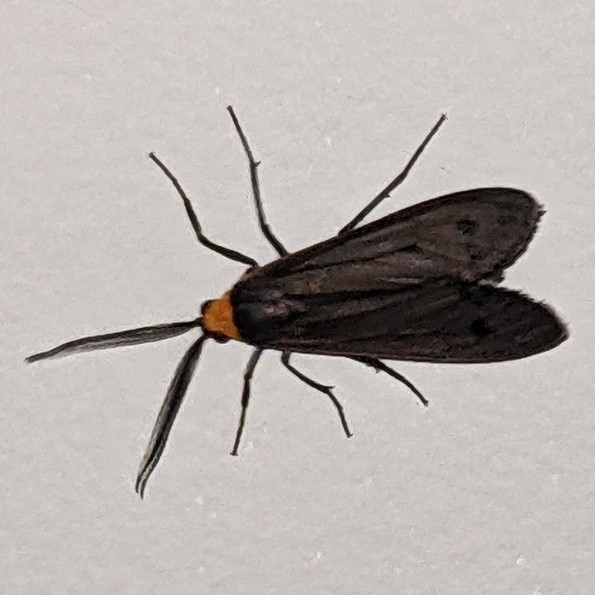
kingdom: Animalia
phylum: Arthropoda
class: Insecta
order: Lepidoptera
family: Erebidae
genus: Cisseps
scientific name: Cisseps fulvicollis
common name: Yellow-collared scape moth
